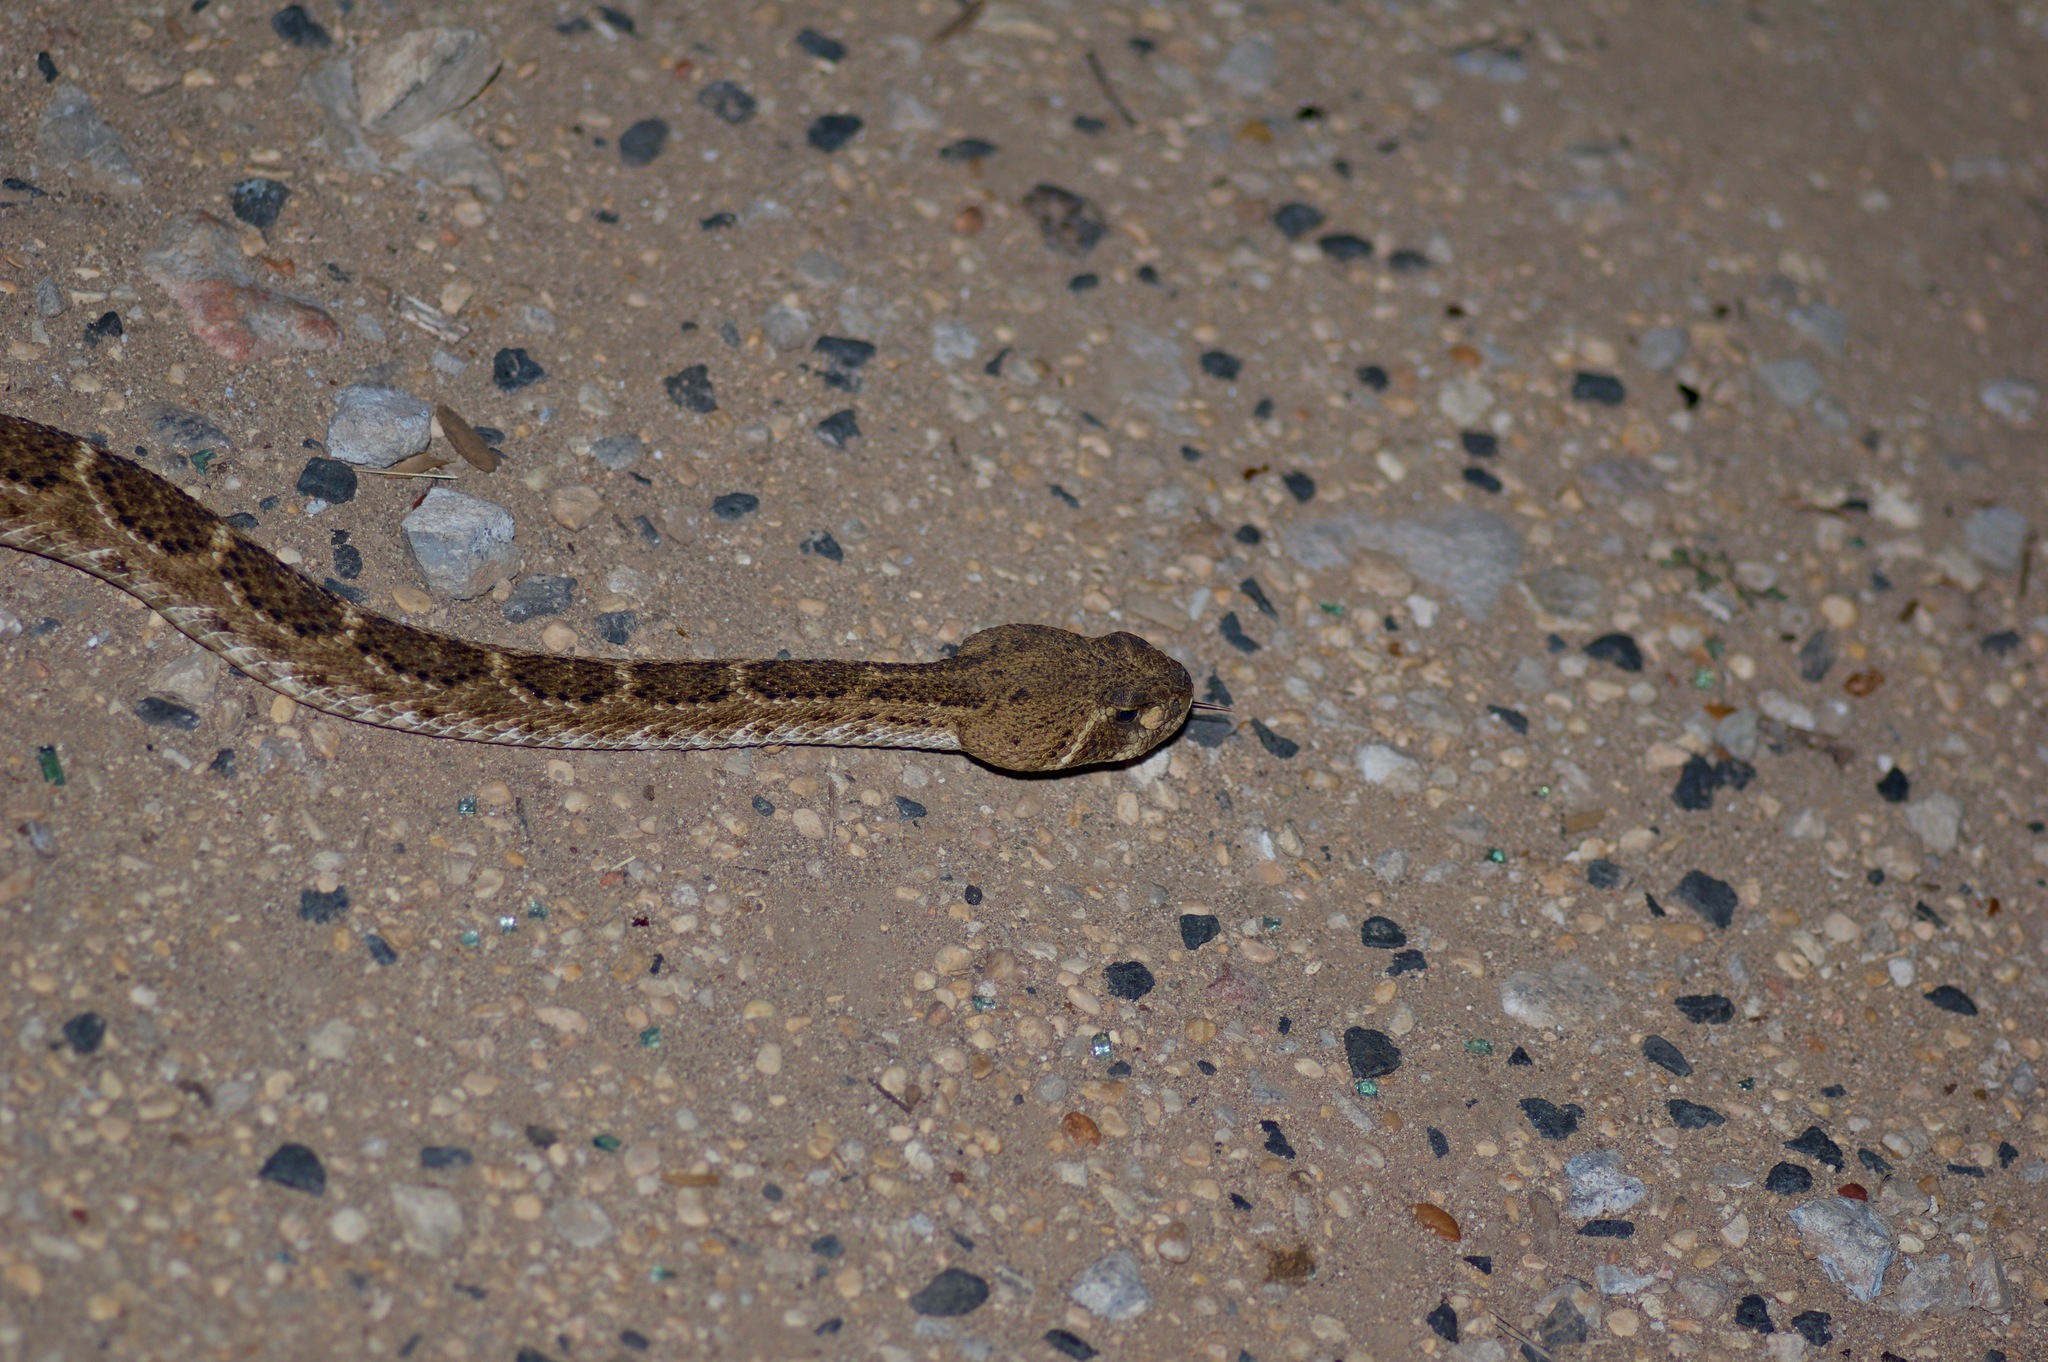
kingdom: Animalia
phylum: Chordata
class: Squamata
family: Viperidae
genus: Crotalus
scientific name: Crotalus atrox
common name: Western diamond-backed rattlesnake
